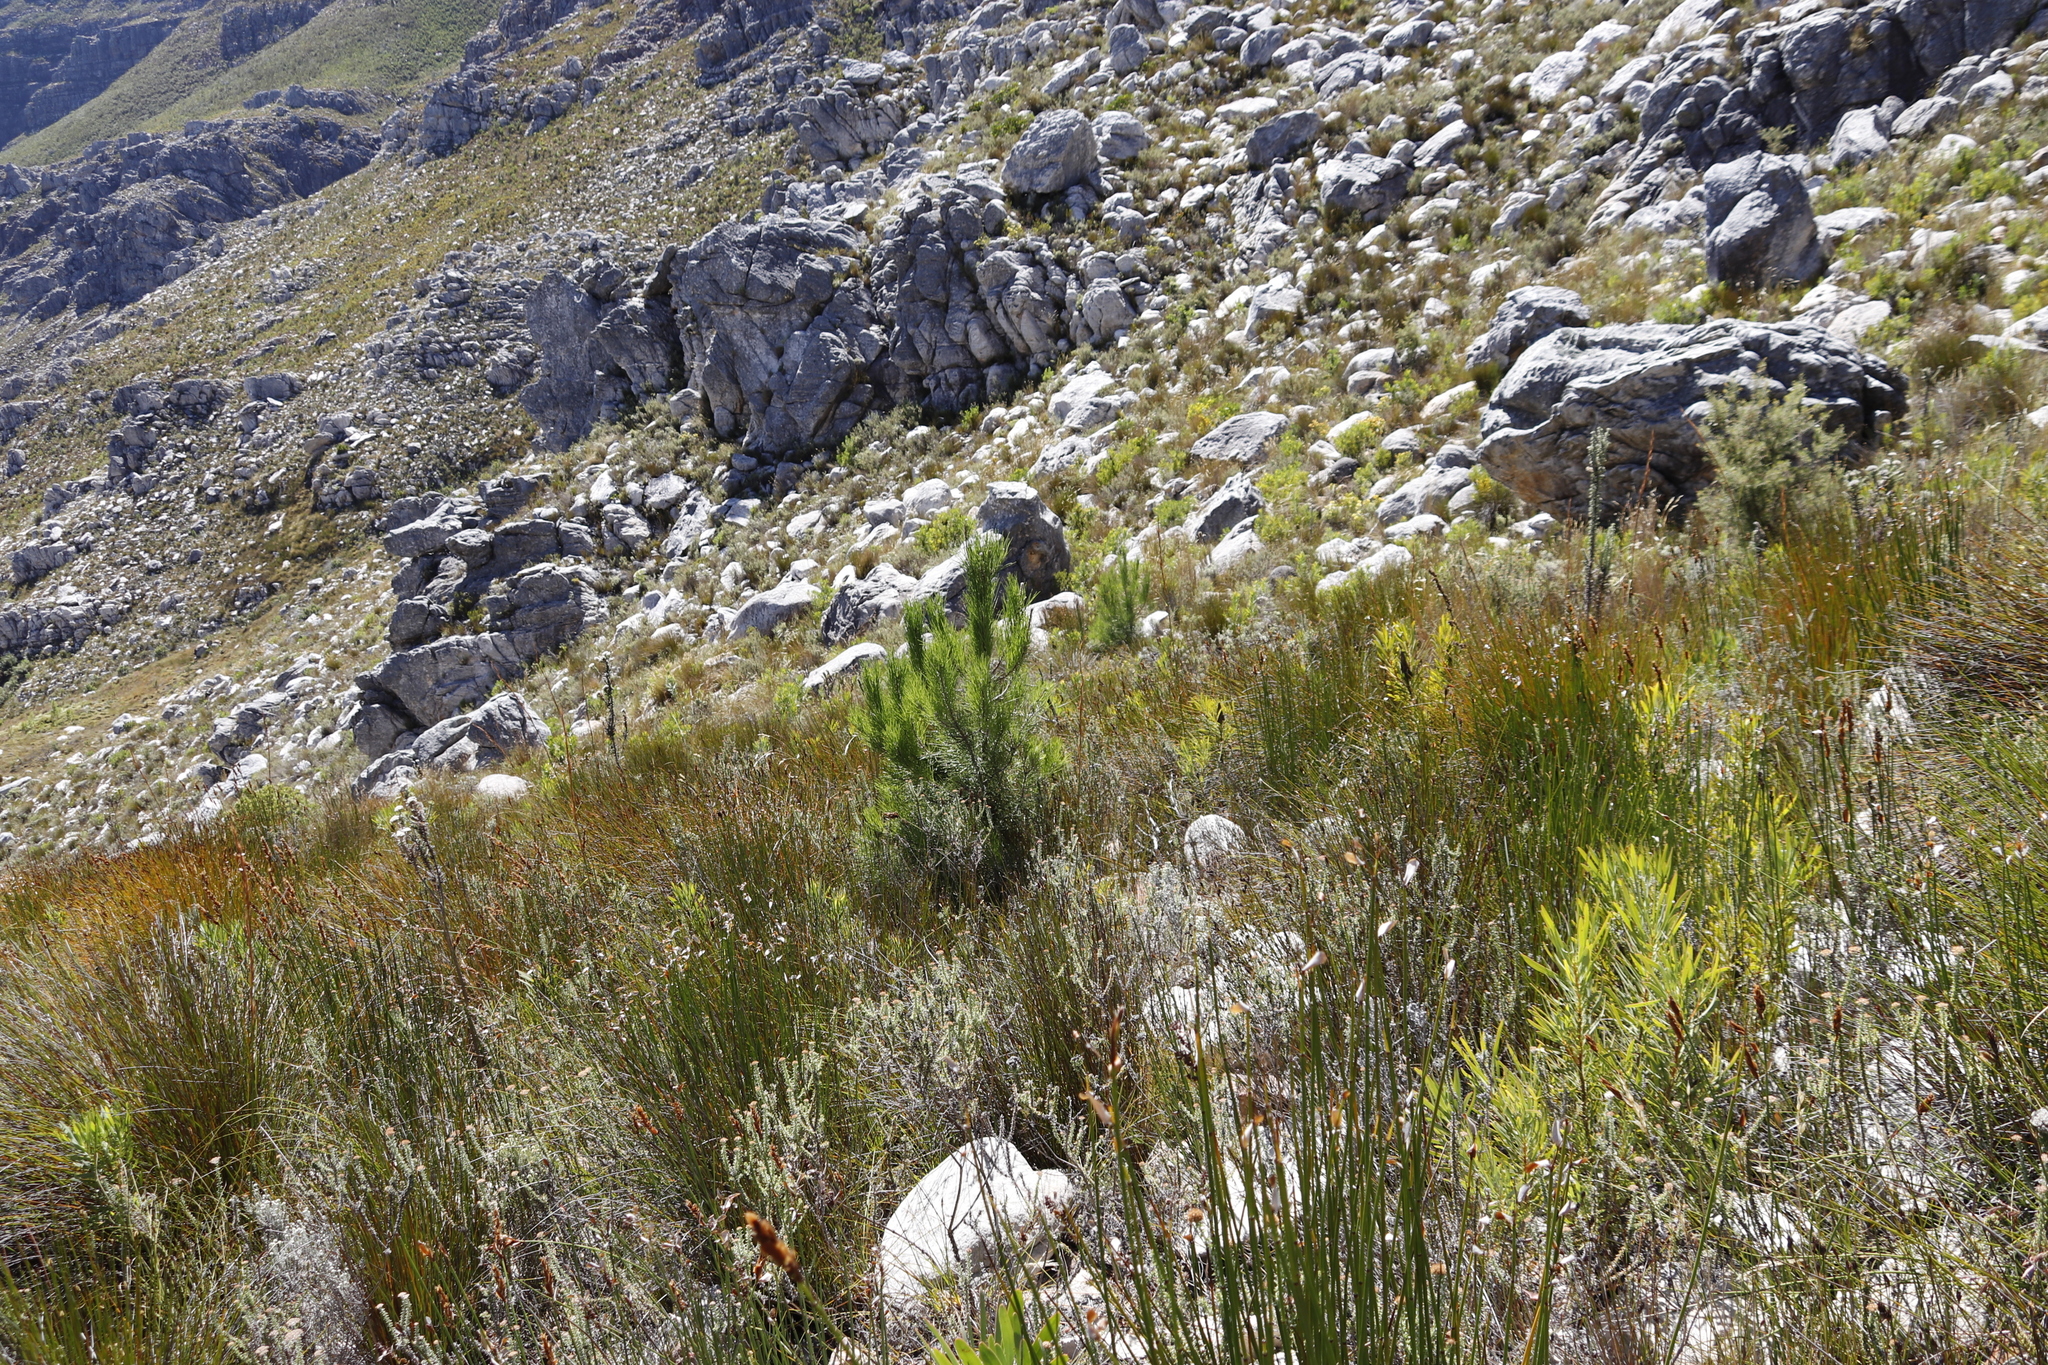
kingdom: Plantae
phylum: Tracheophyta
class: Pinopsida
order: Pinales
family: Pinaceae
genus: Pinus
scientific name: Pinus radiata
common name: Monterey pine
